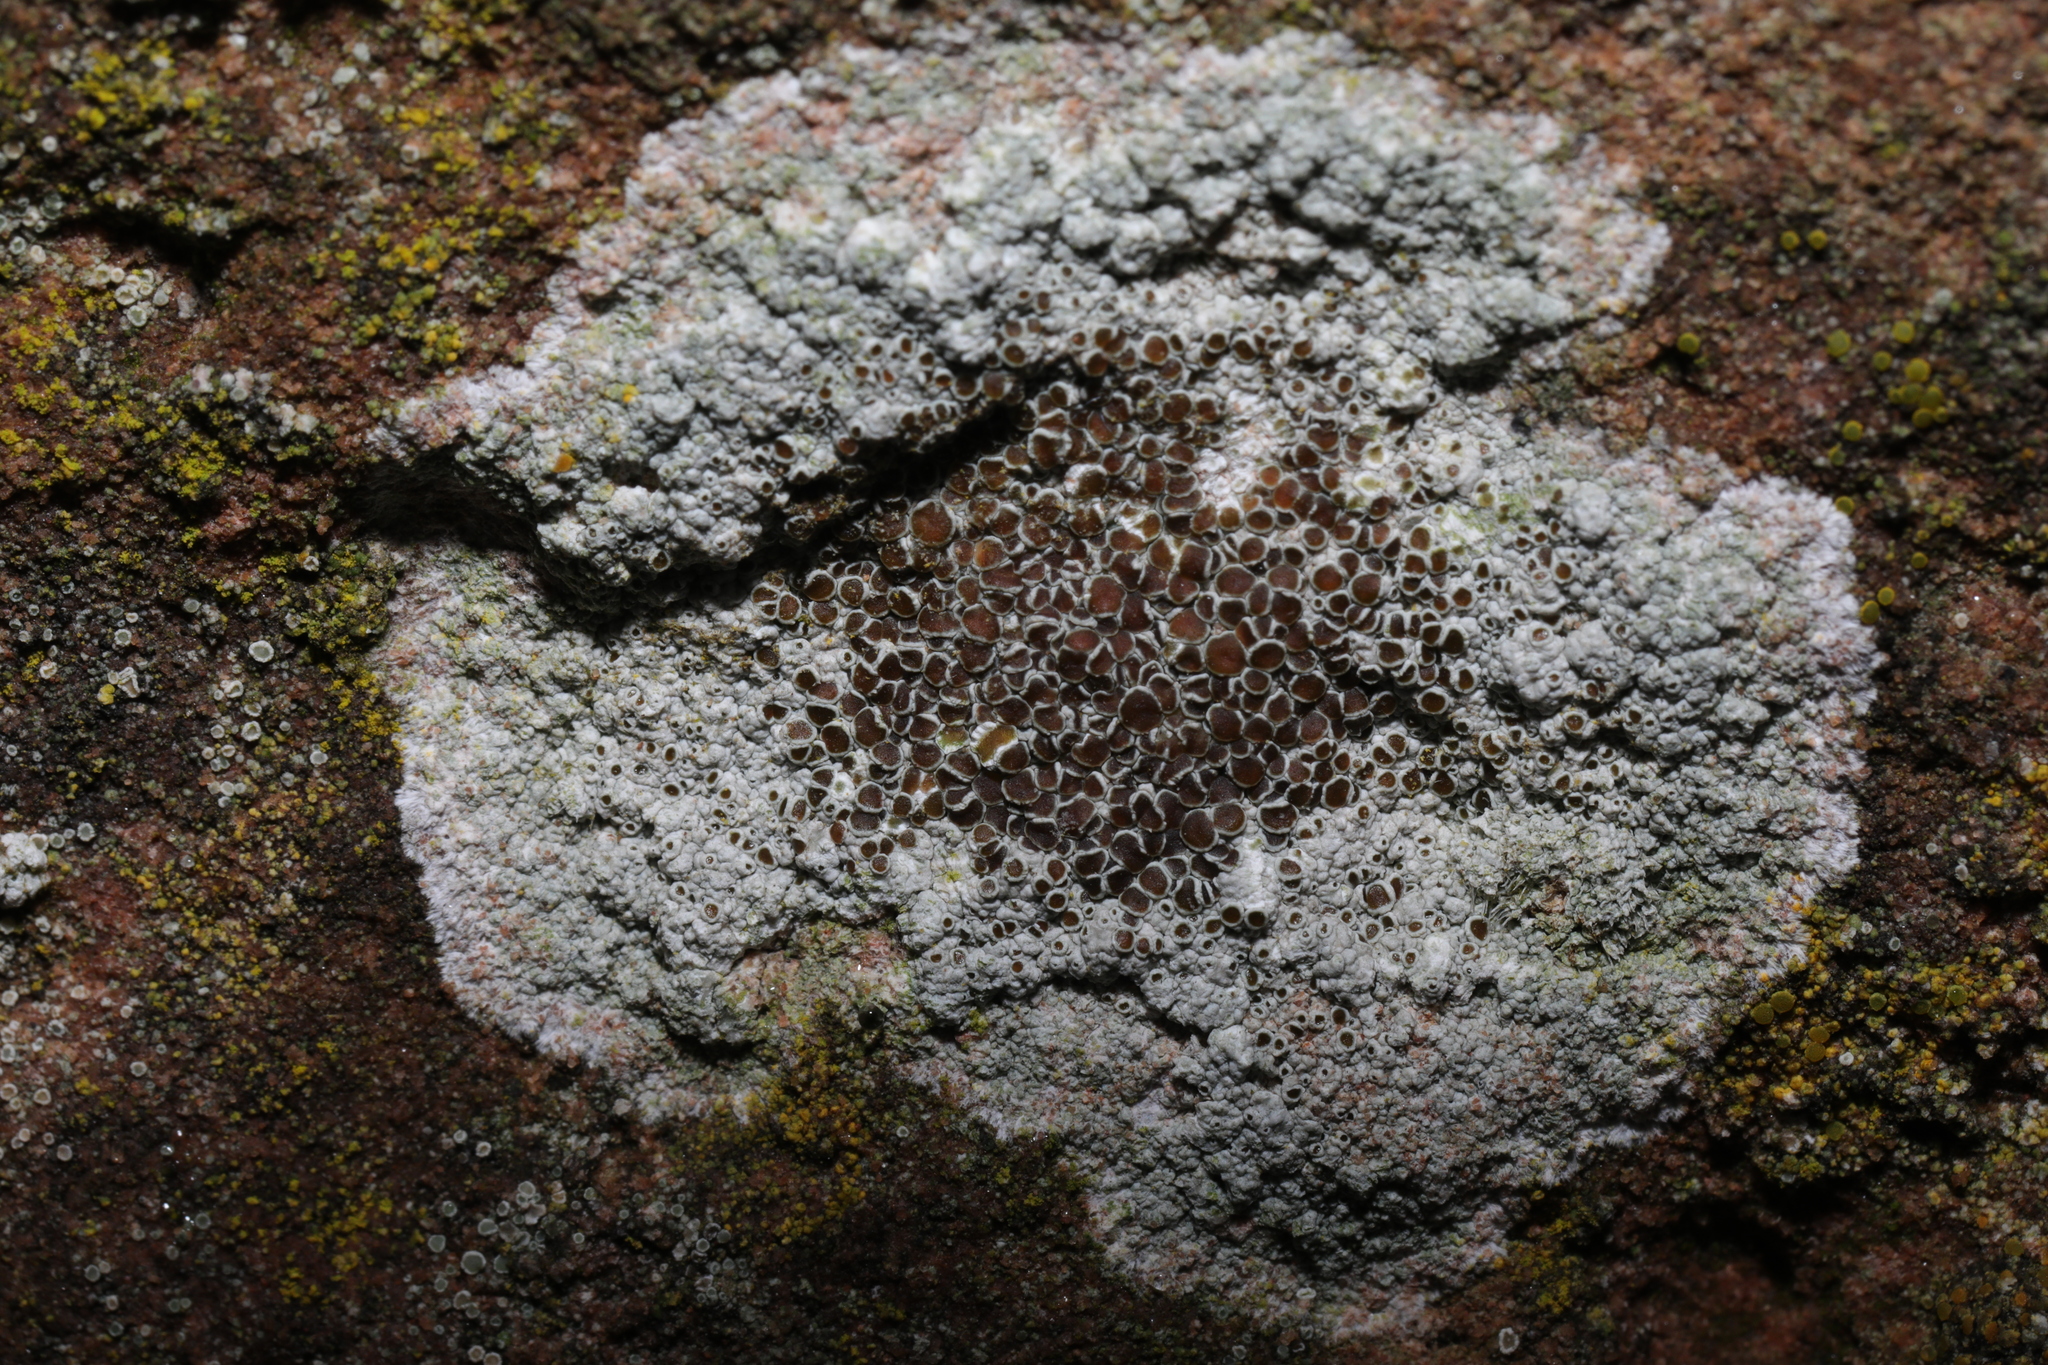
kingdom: Fungi
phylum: Ascomycota
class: Lecanoromycetes
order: Lecanorales
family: Lecanoraceae
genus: Lecanora
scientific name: Lecanora campestris
